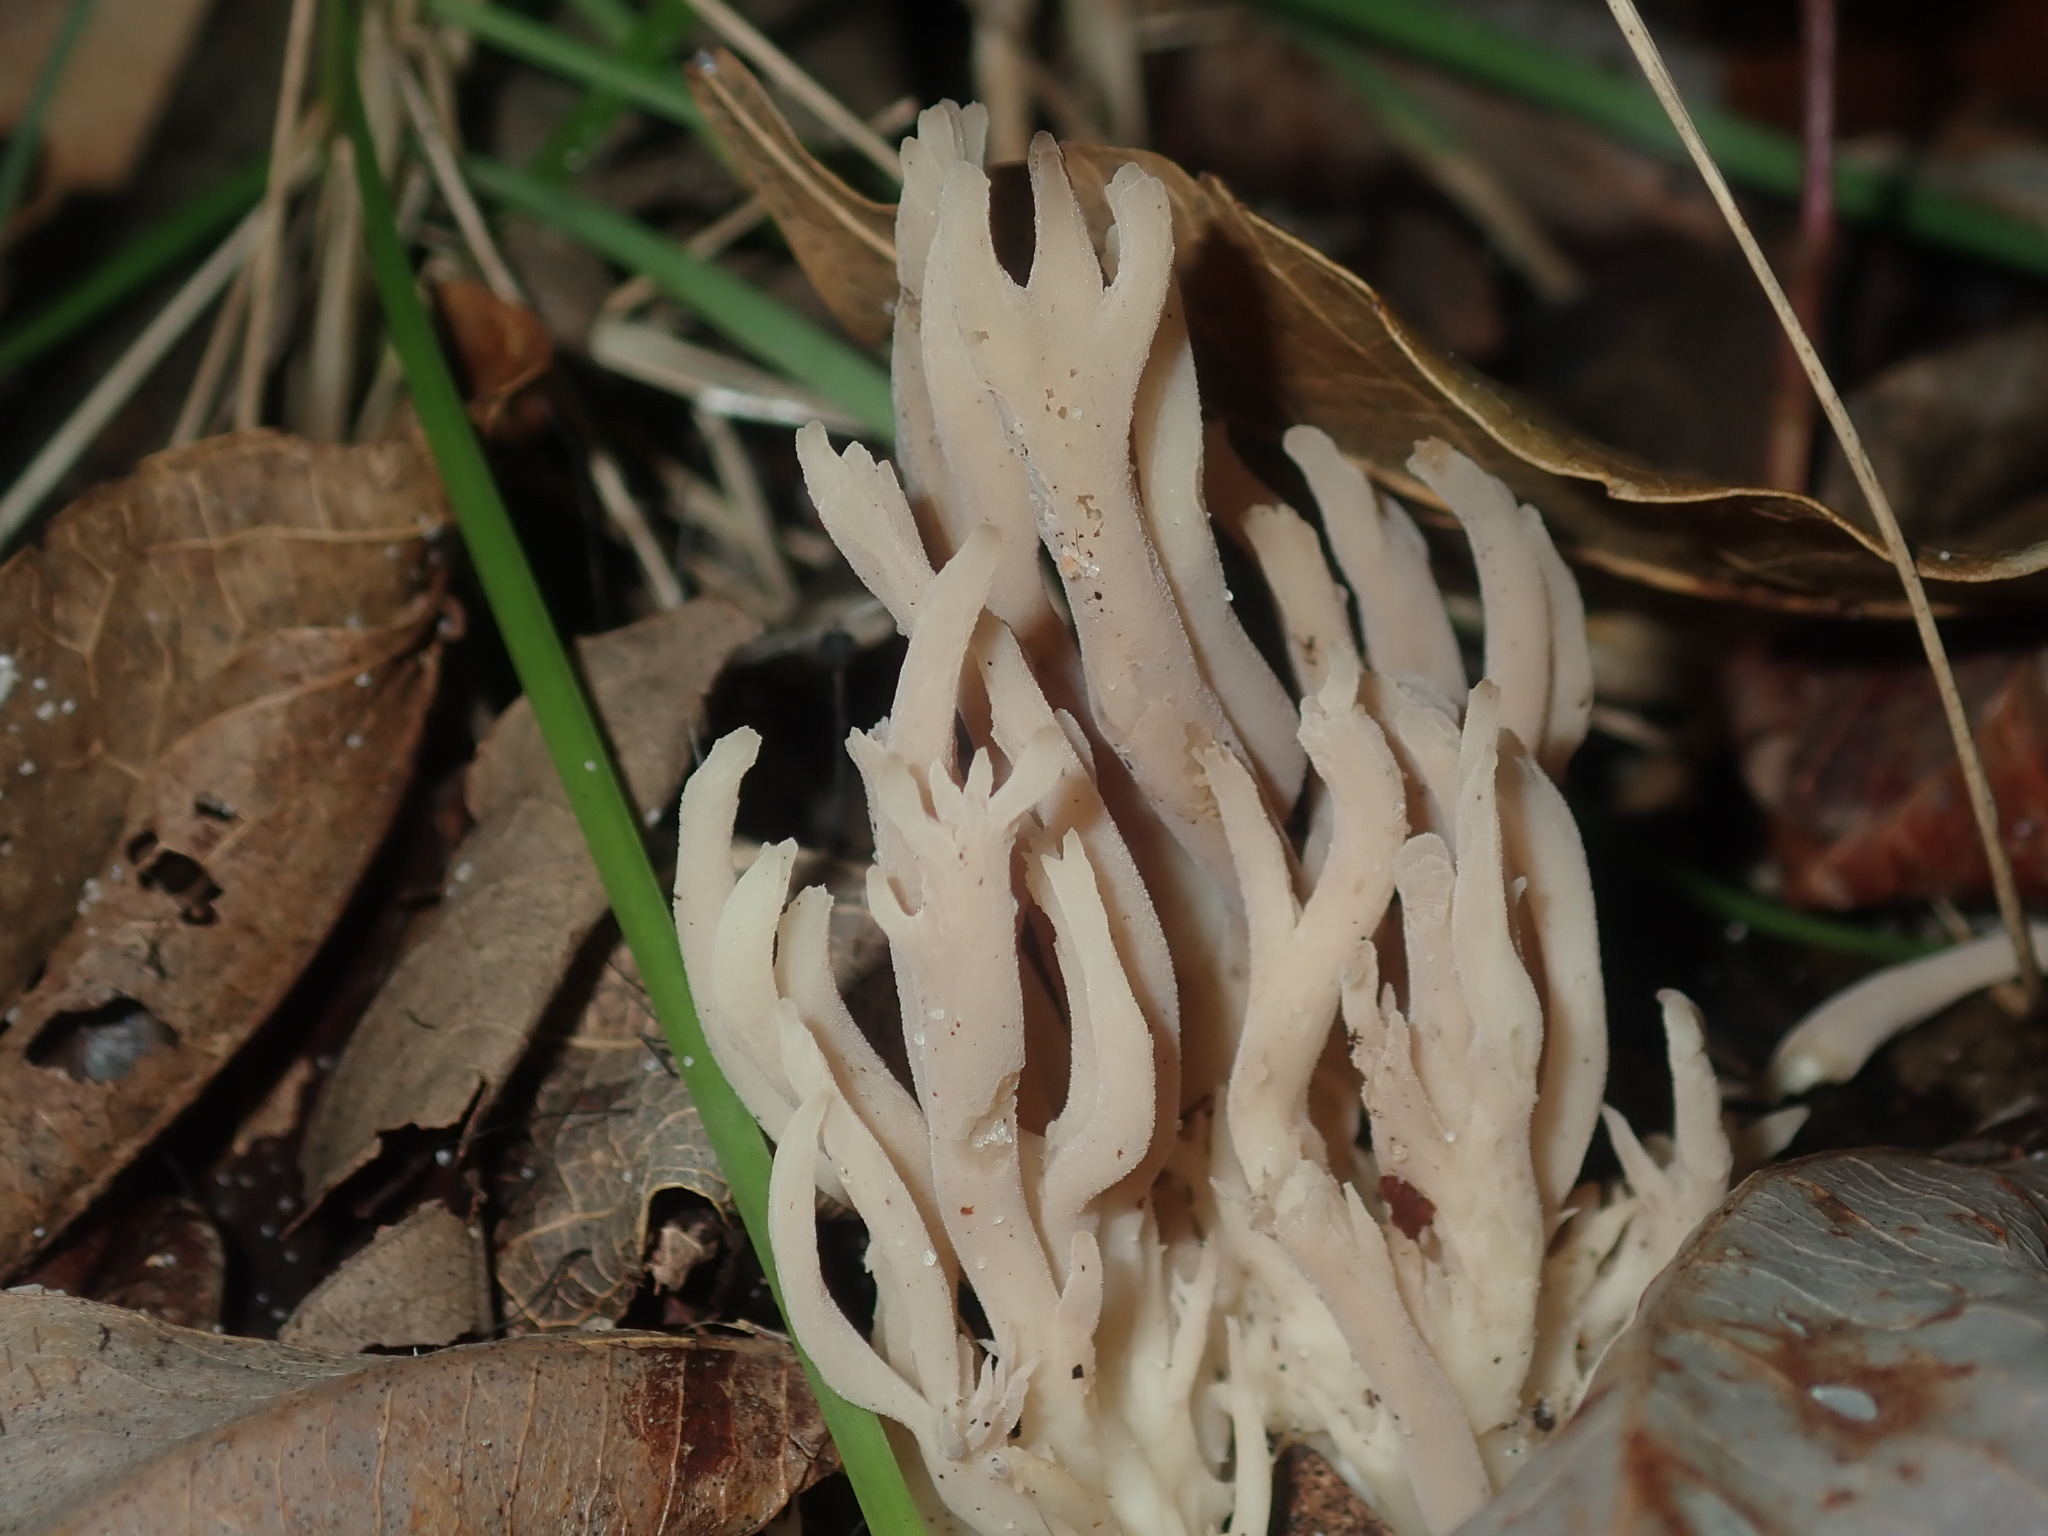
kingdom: Fungi
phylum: Basidiomycota
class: Agaricomycetes
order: Cantharellales
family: Hydnaceae
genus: Clavulina
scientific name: Clavulina subrugosa
